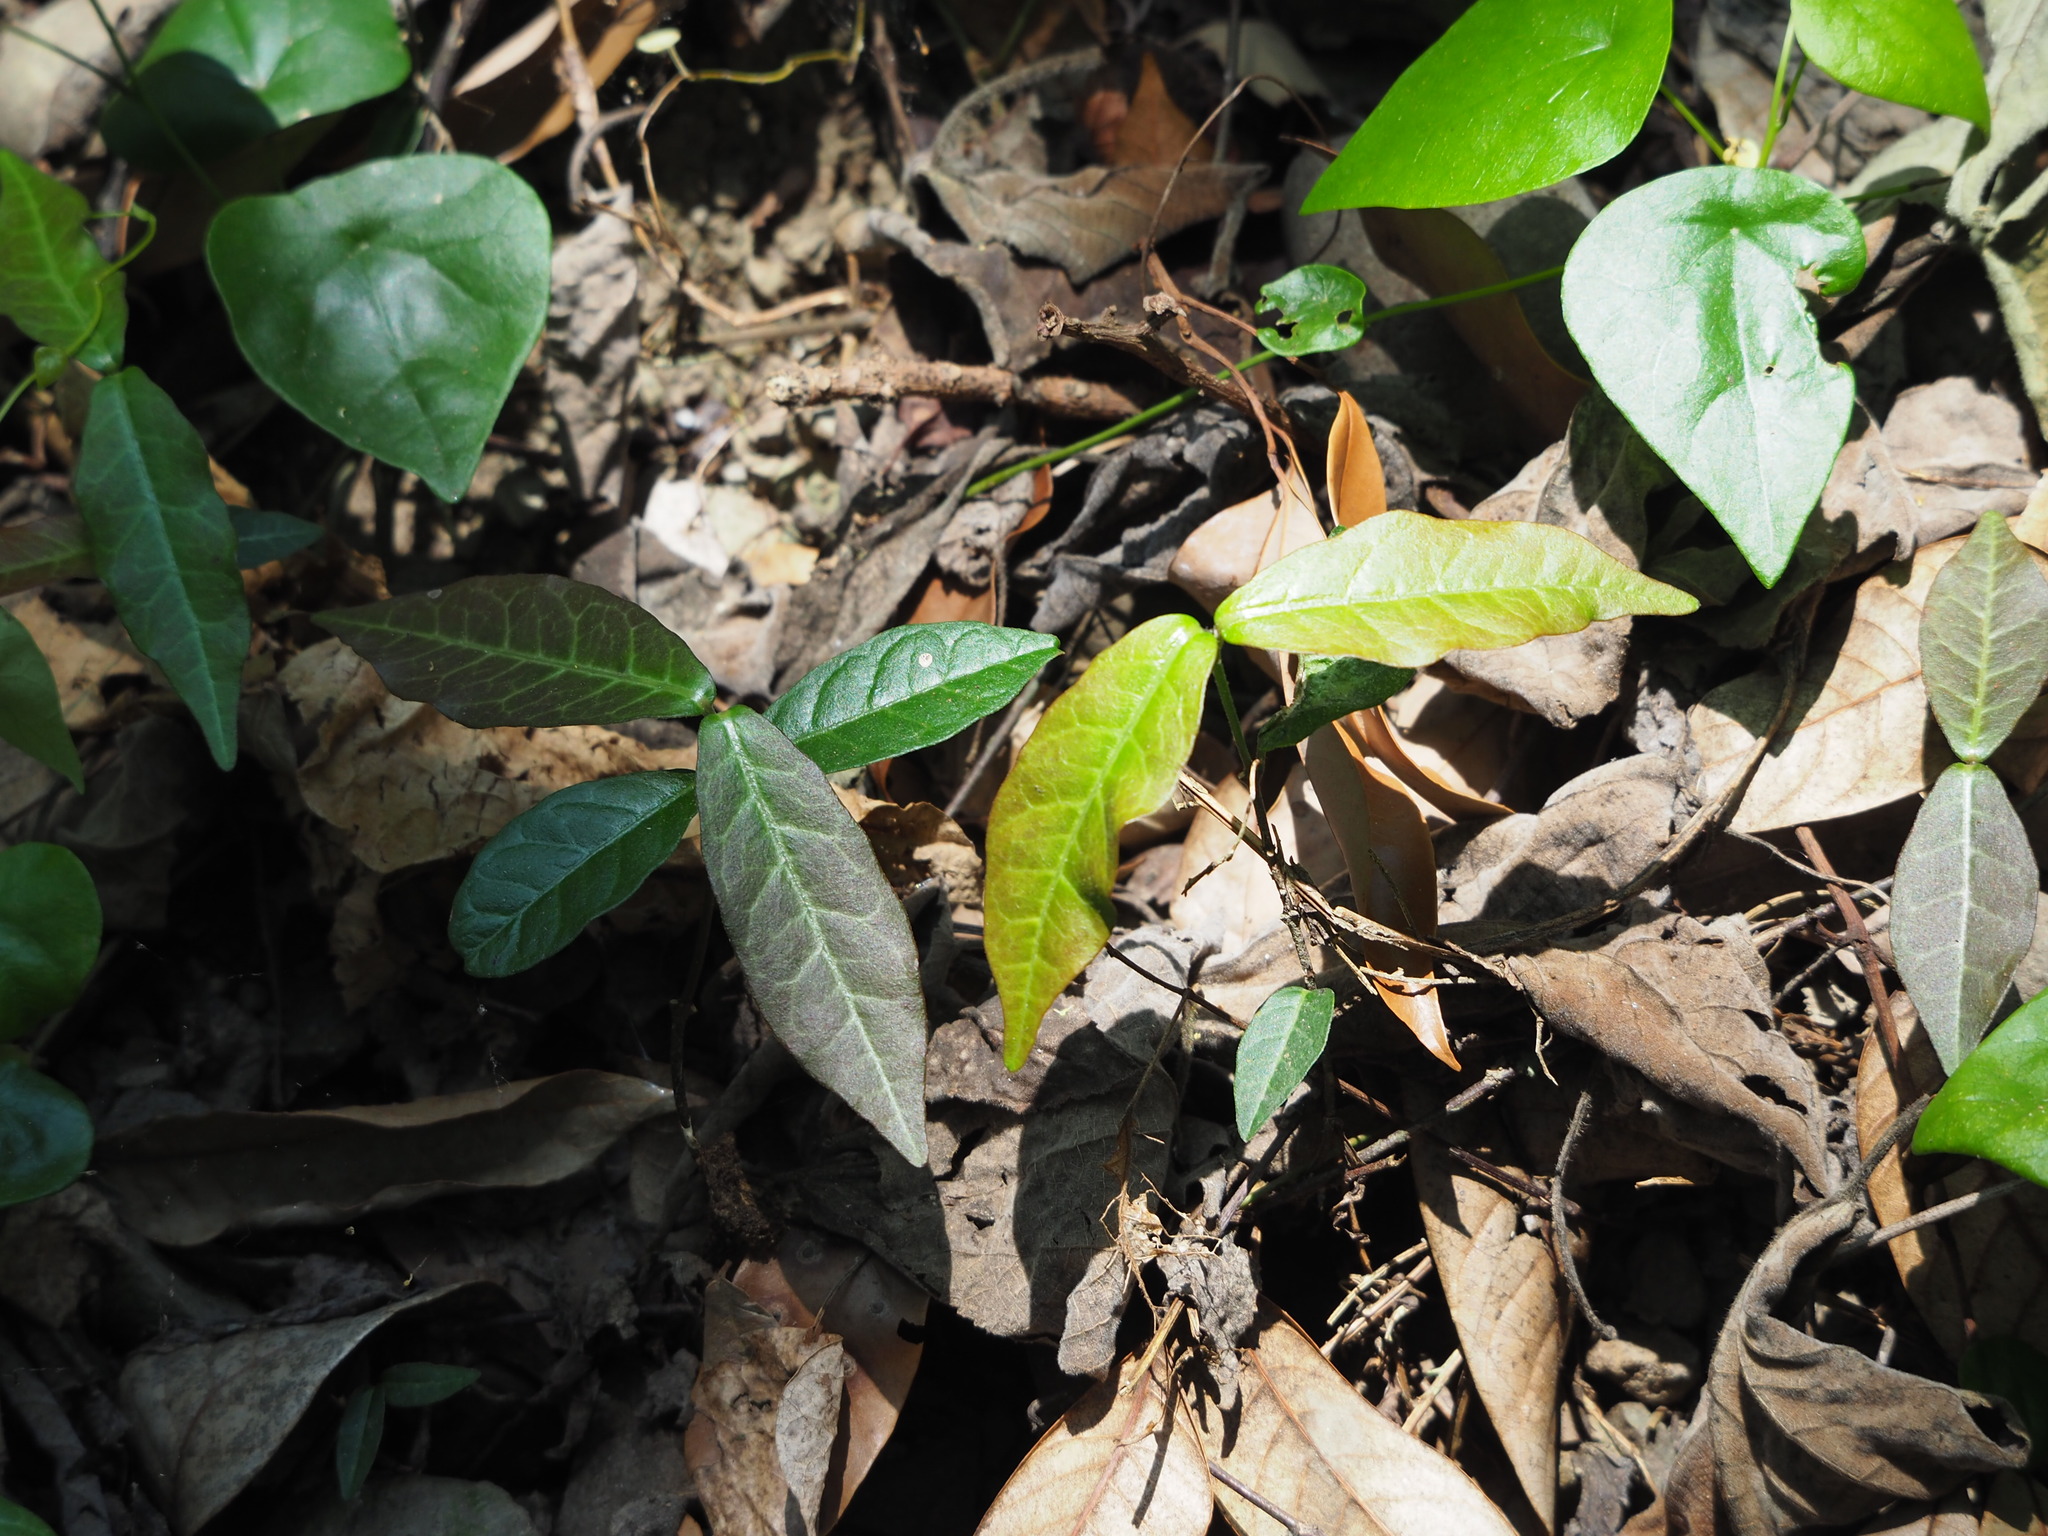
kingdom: Plantae
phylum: Tracheophyta
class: Magnoliopsida
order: Gentianales
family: Apocynaceae
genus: Trachelospermum
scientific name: Trachelospermum jasminoides
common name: Confederate jasmine
